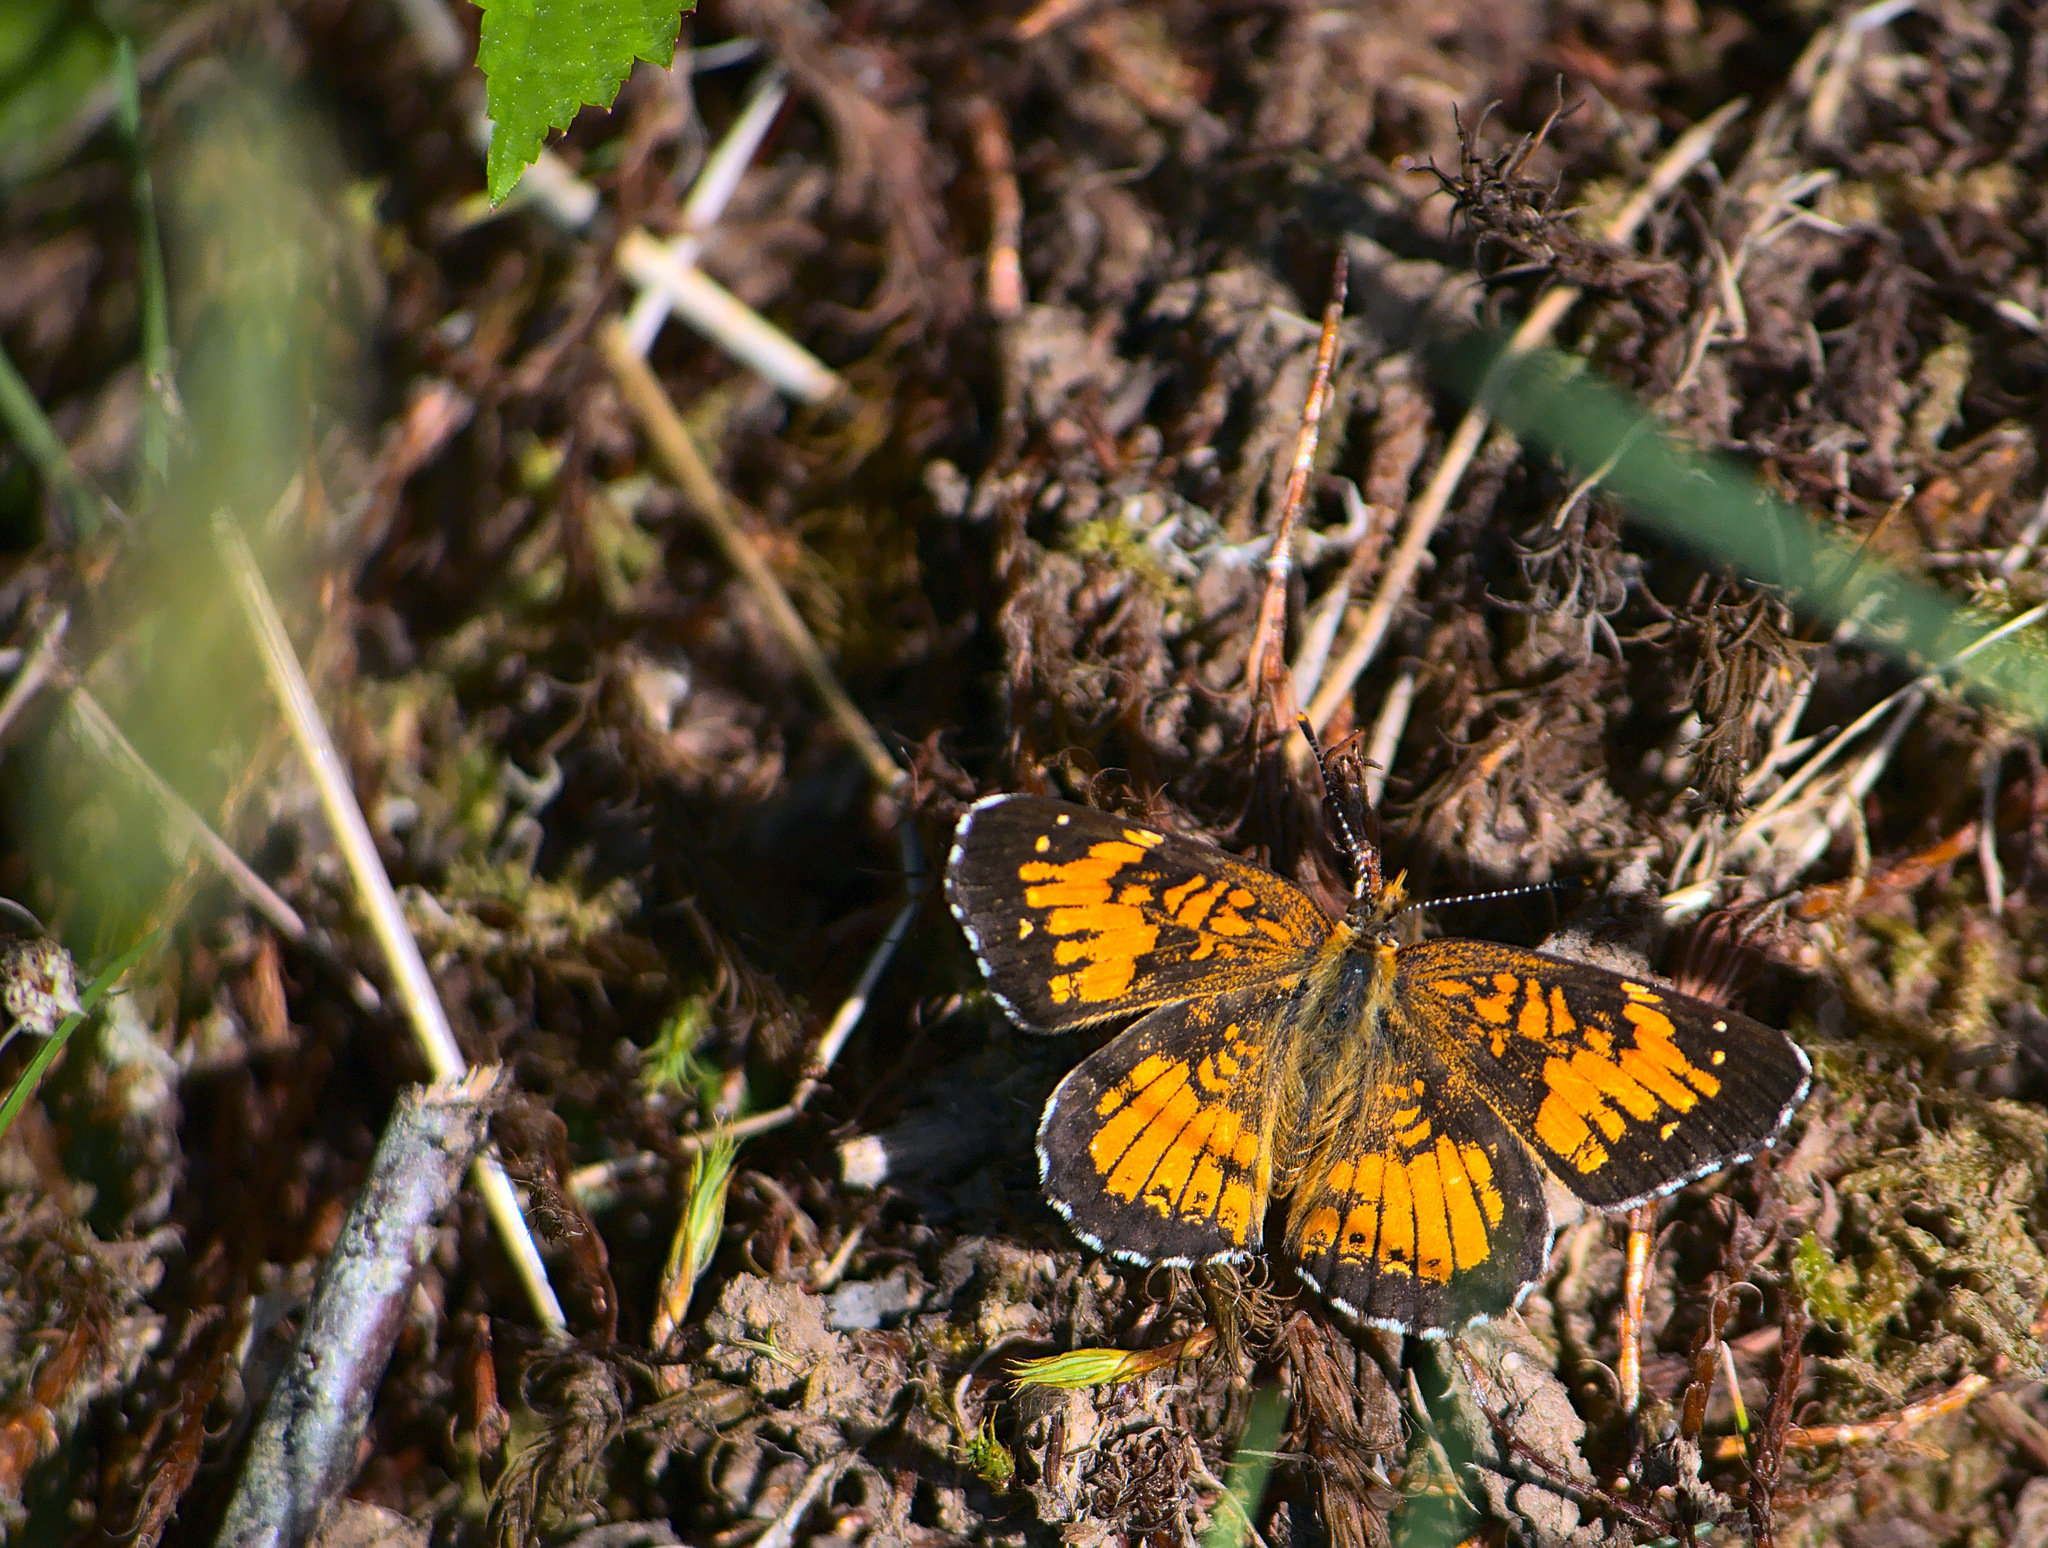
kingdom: Animalia
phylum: Arthropoda
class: Insecta
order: Lepidoptera
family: Nymphalidae
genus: Chlosyne
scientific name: Chlosyne harrisii
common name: Harris's checkerspot
